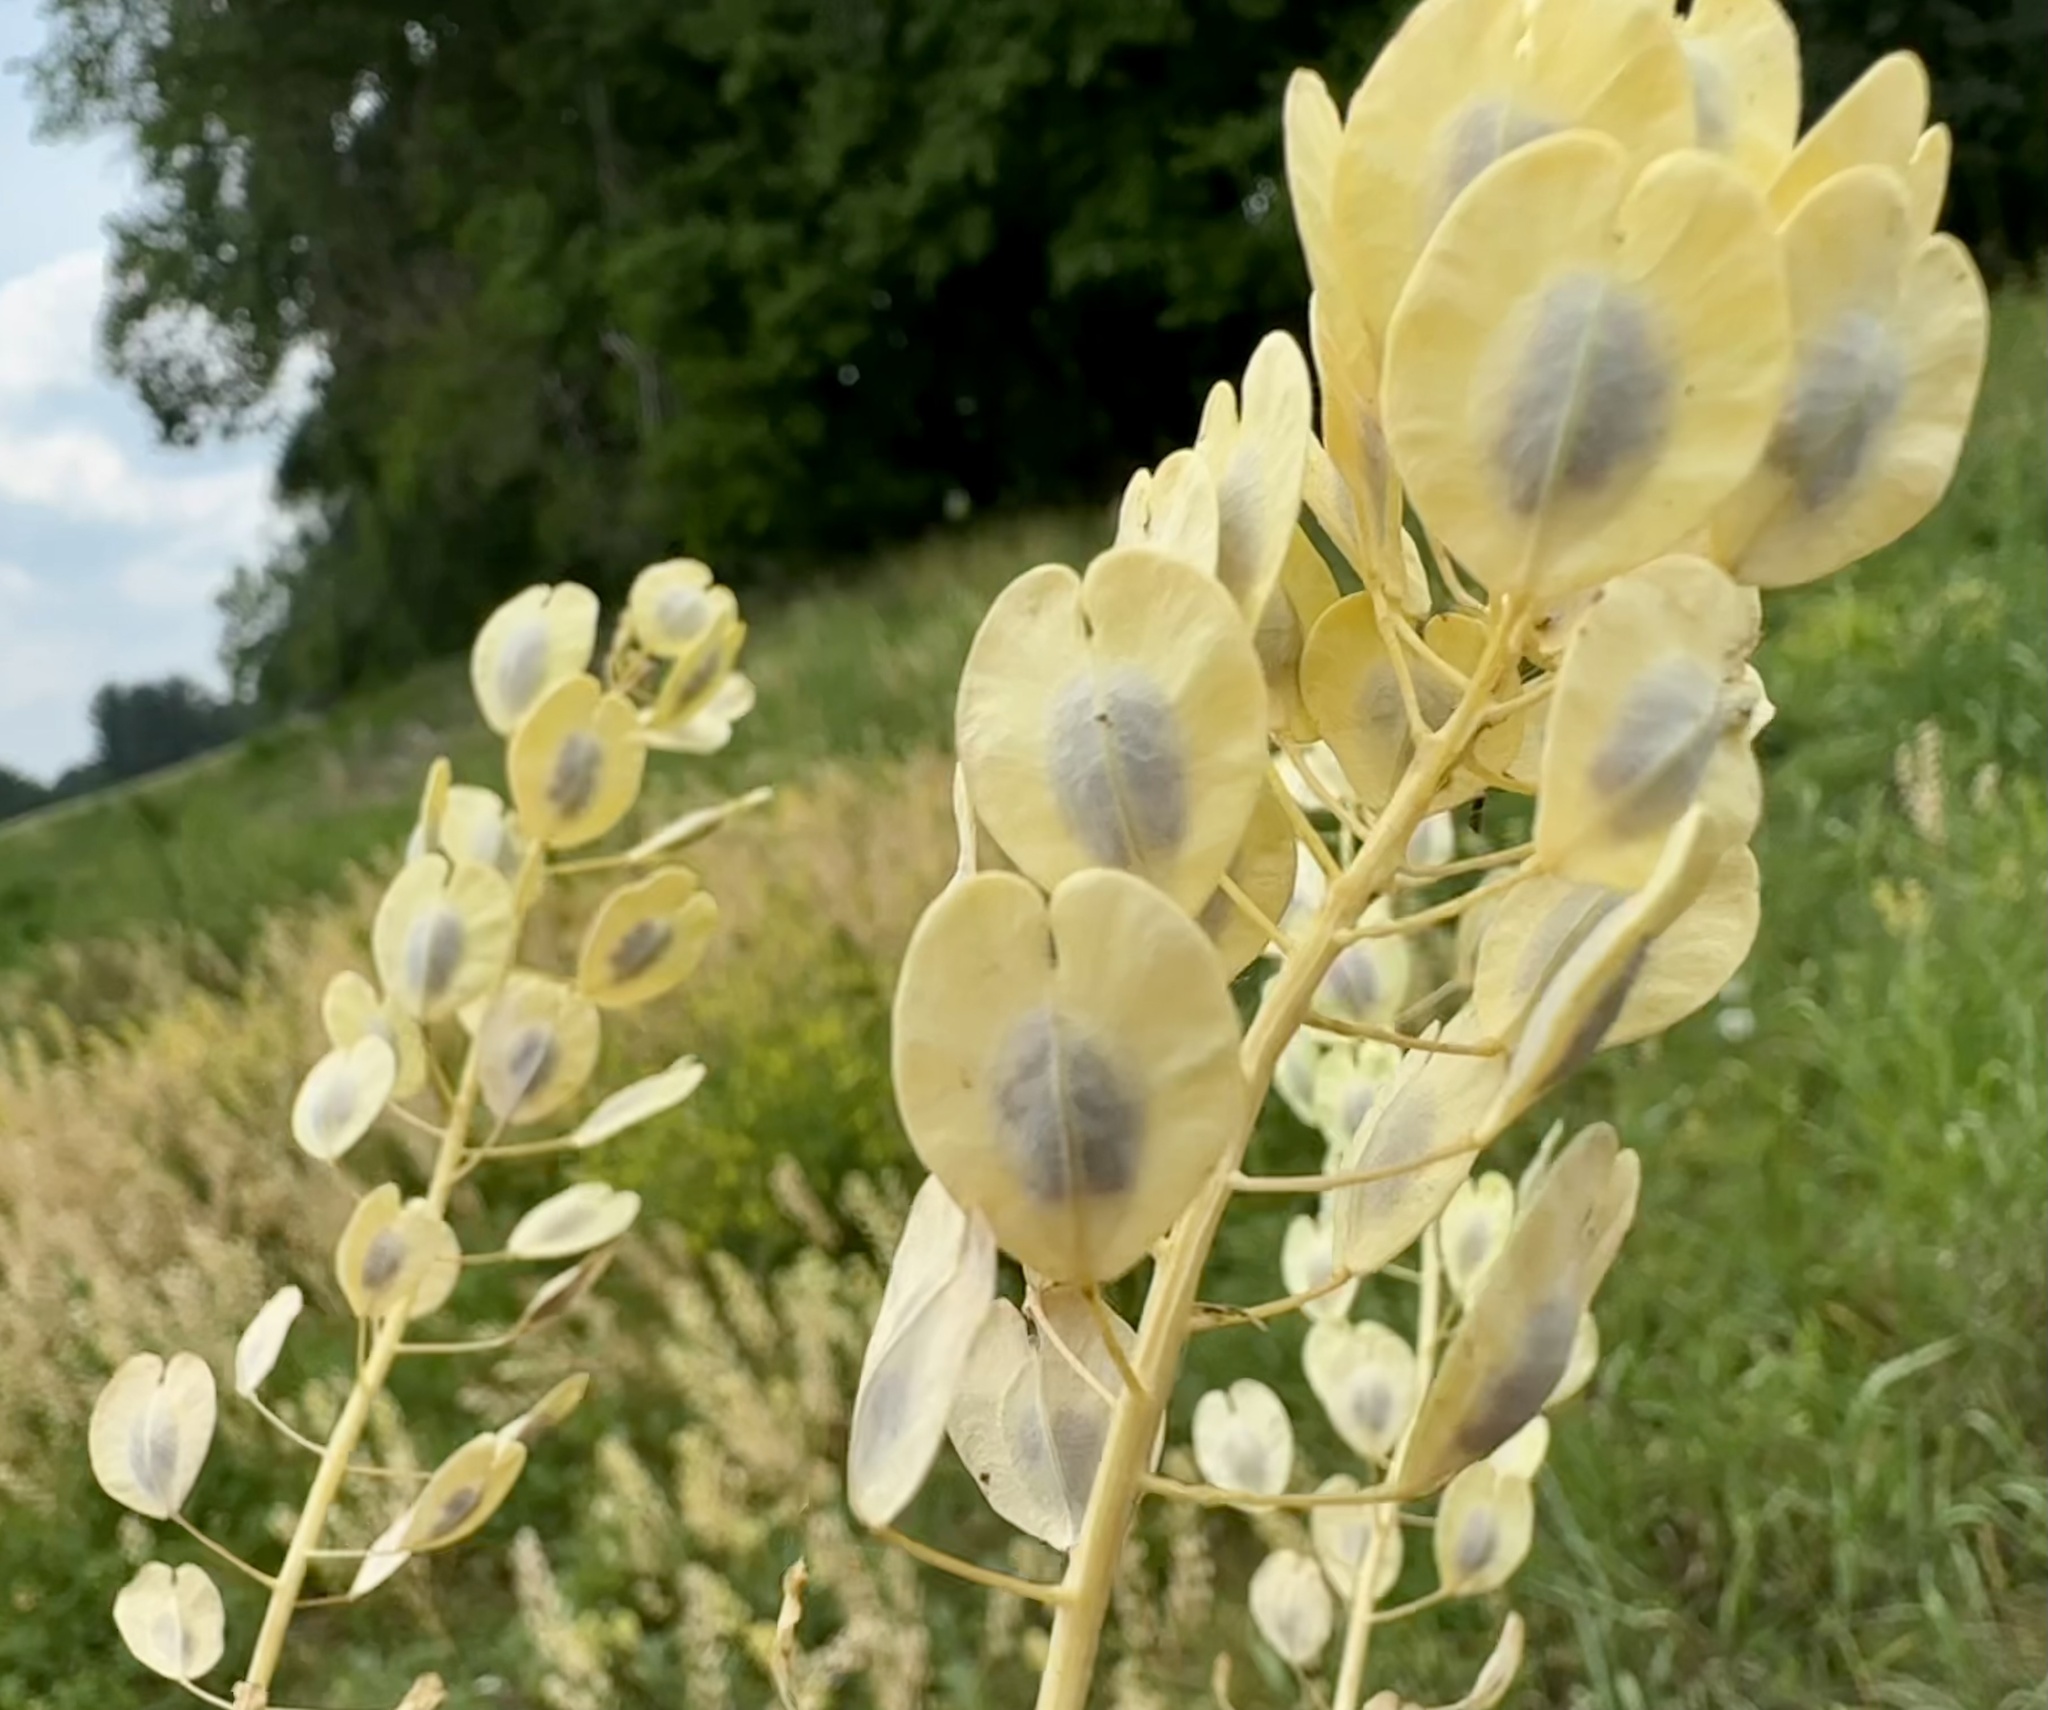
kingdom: Plantae
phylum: Tracheophyta
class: Magnoliopsida
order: Brassicales
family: Brassicaceae
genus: Thlaspi
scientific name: Thlaspi arvense
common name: Field pennycress
